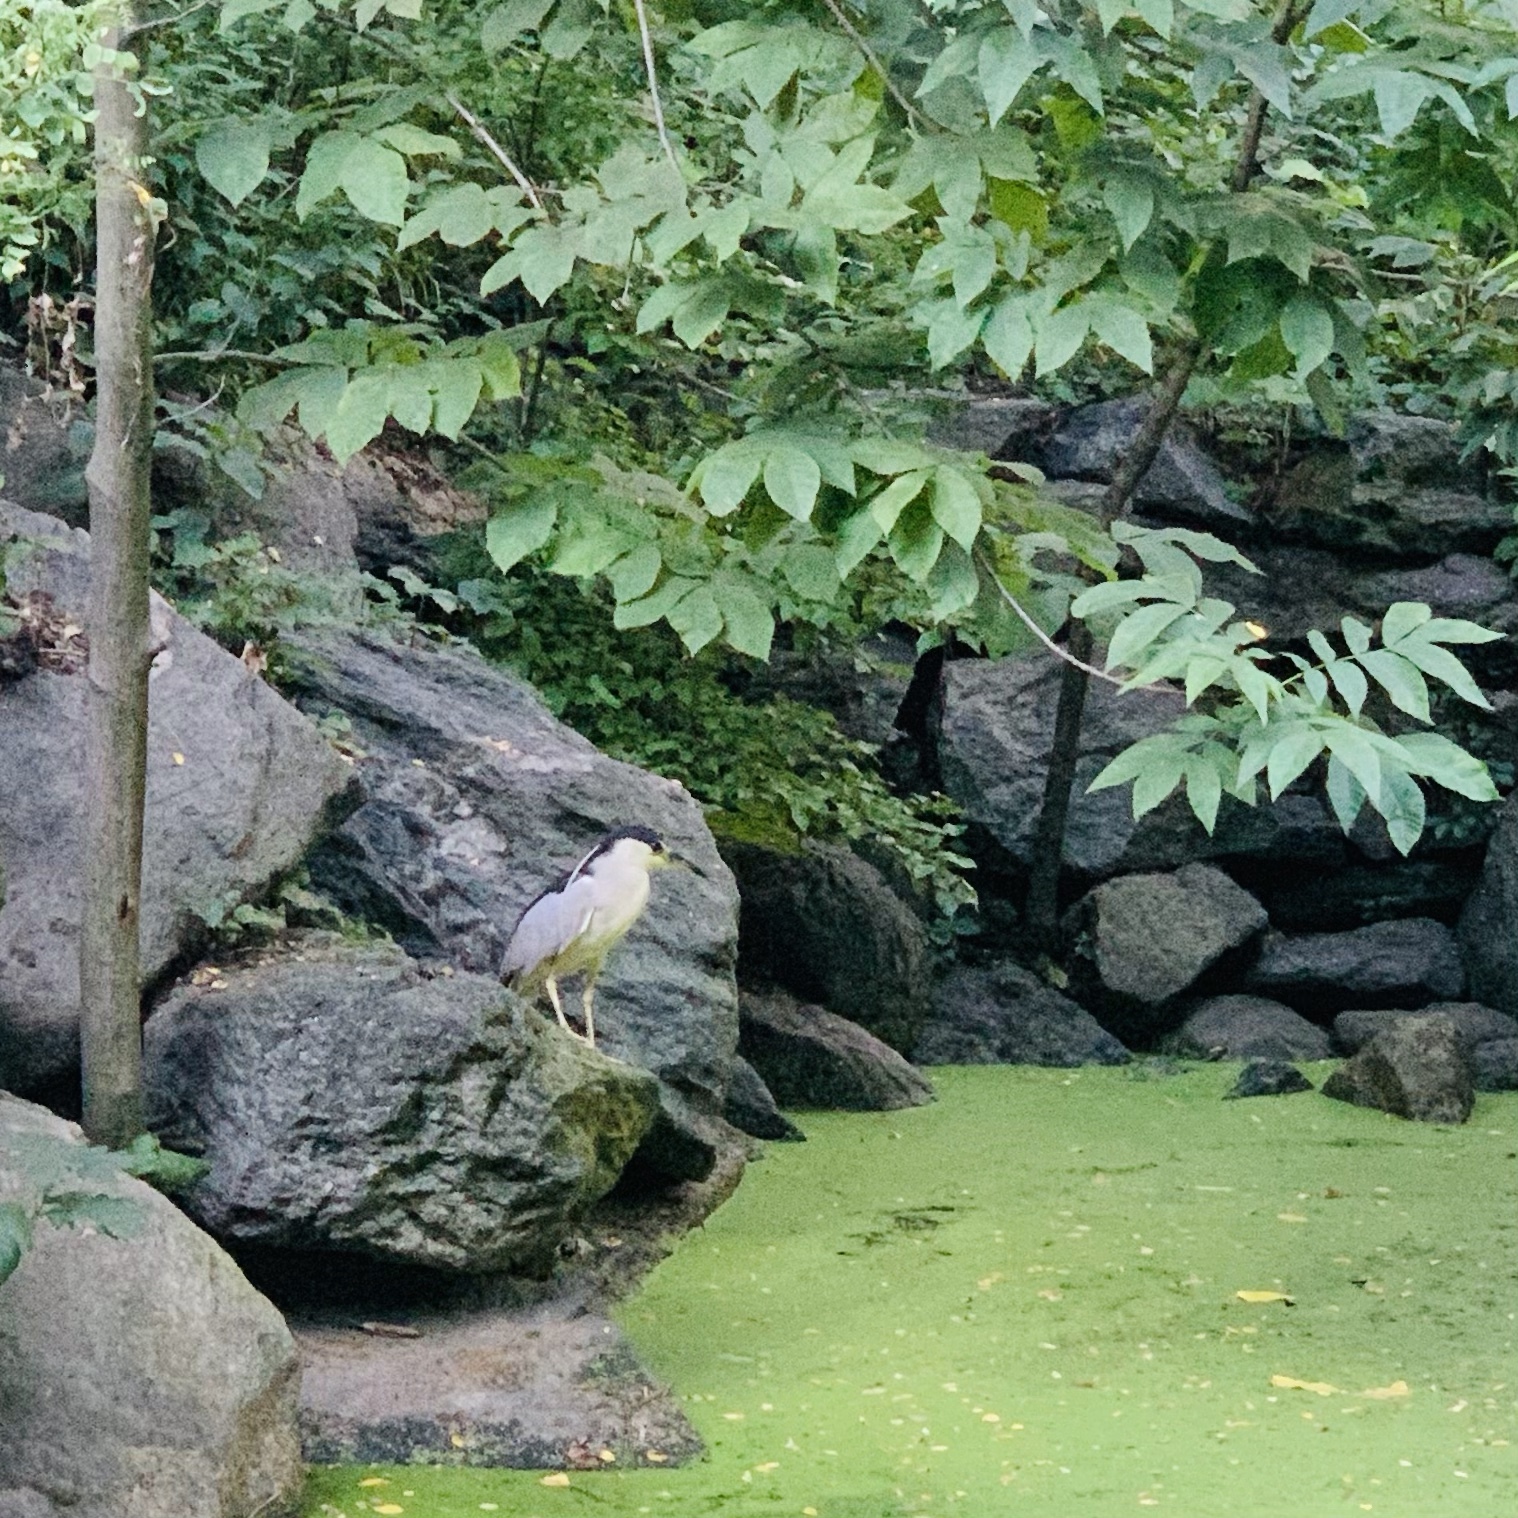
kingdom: Animalia
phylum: Chordata
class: Aves
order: Pelecaniformes
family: Ardeidae
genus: Nycticorax
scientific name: Nycticorax nycticorax
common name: Black-crowned night heron
